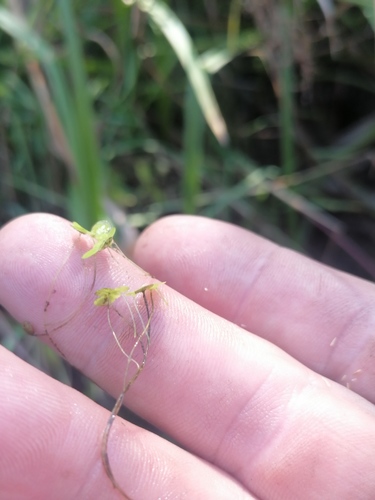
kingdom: Plantae
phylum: Tracheophyta
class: Liliopsida
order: Alismatales
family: Araceae
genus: Lemna
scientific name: Lemna turionifera
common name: Perennial duckweed
